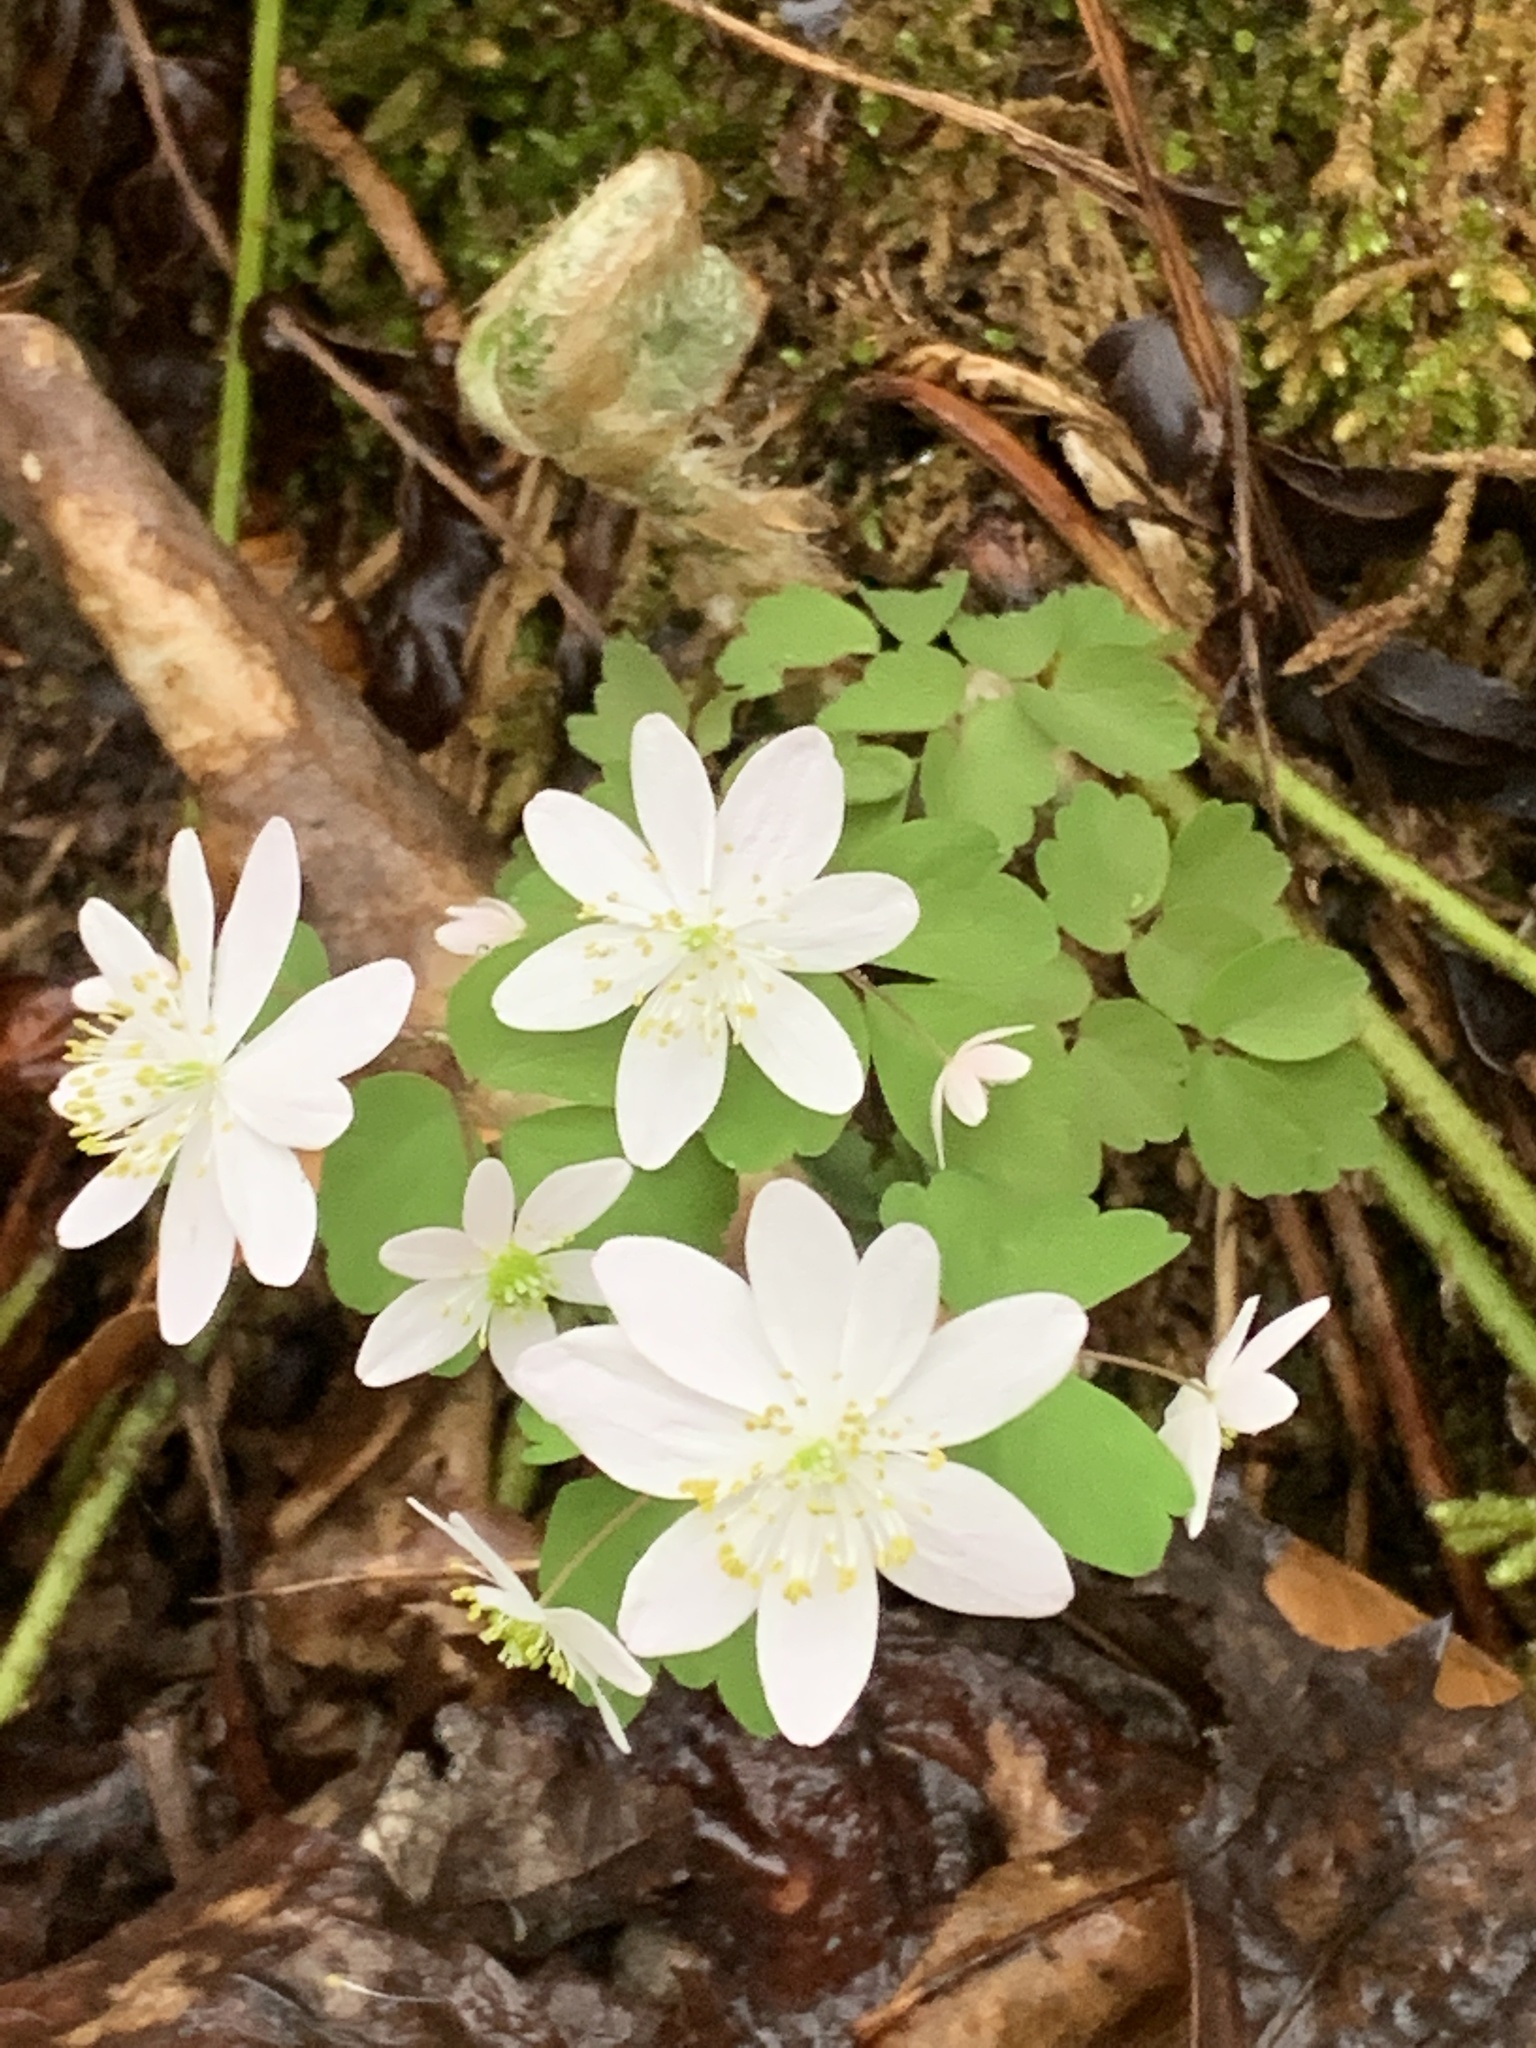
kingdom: Plantae
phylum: Tracheophyta
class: Magnoliopsida
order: Ranunculales
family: Ranunculaceae
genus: Thalictrum
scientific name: Thalictrum thalictroides
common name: Rue-anemone
